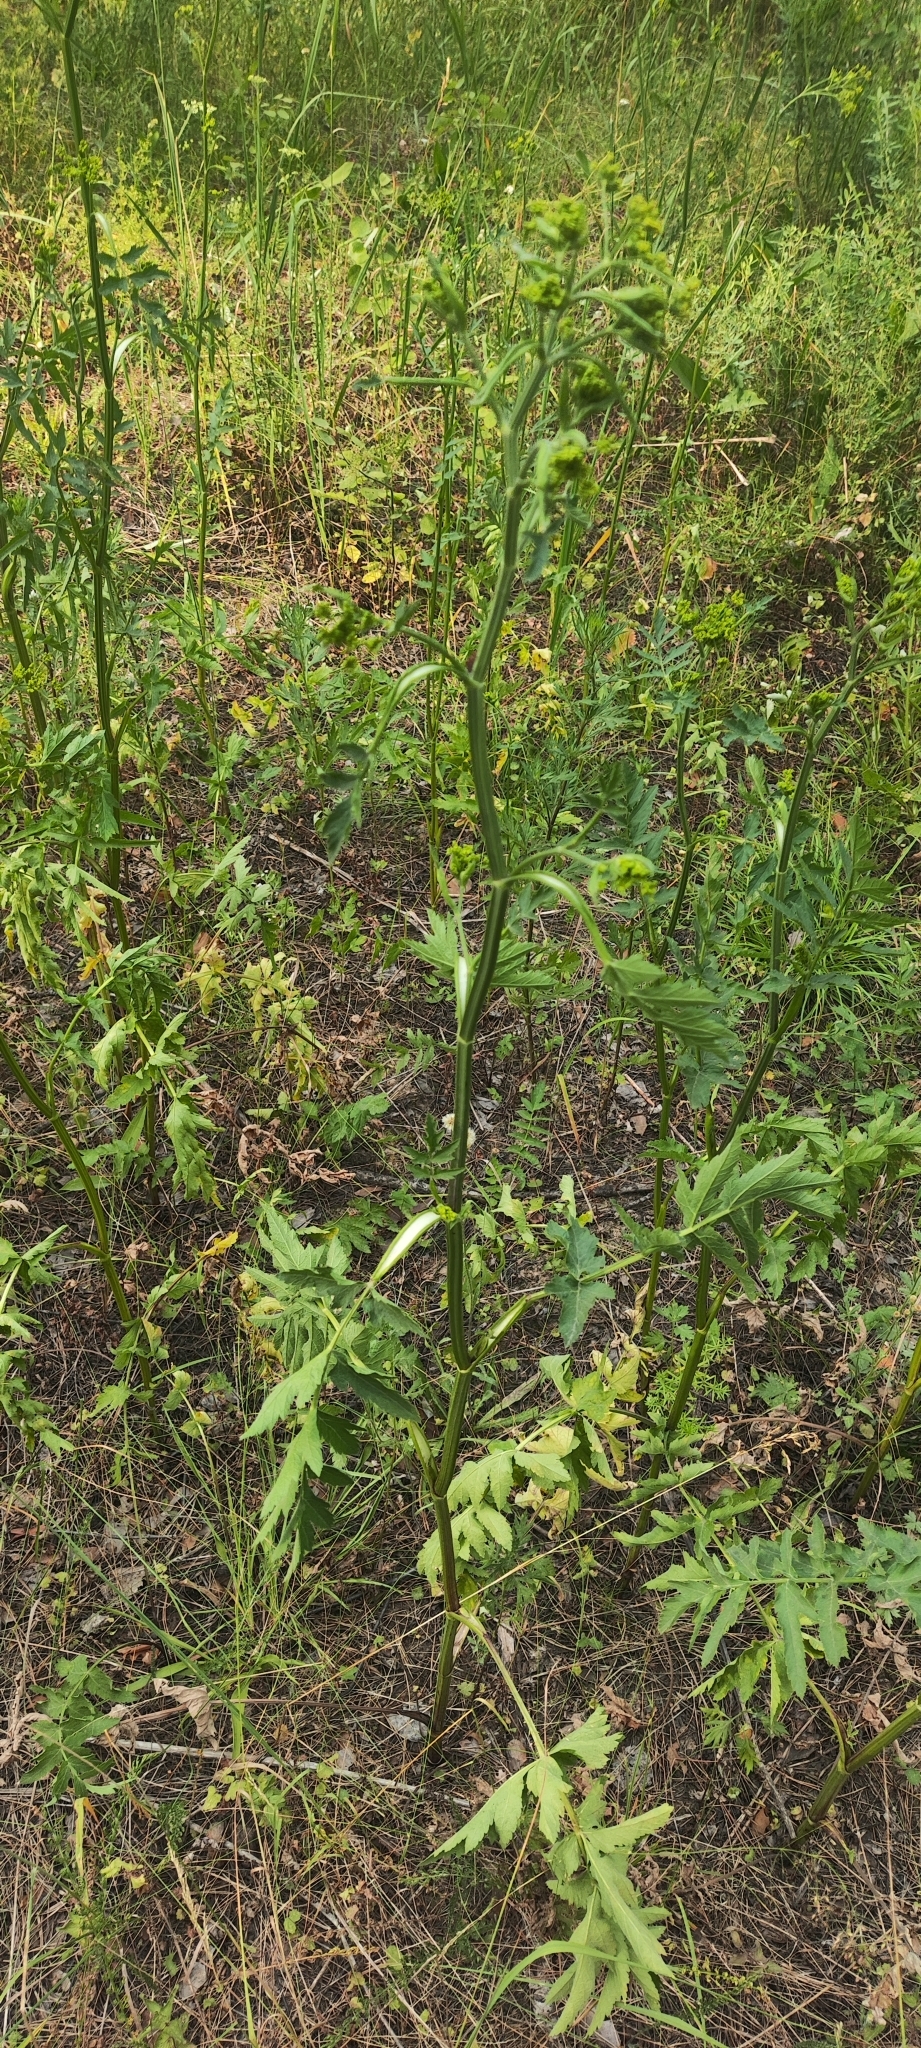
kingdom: Plantae
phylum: Tracheophyta
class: Magnoliopsida
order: Apiales
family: Apiaceae
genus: Pastinaca
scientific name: Pastinaca sativa
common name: Wild parsnip
